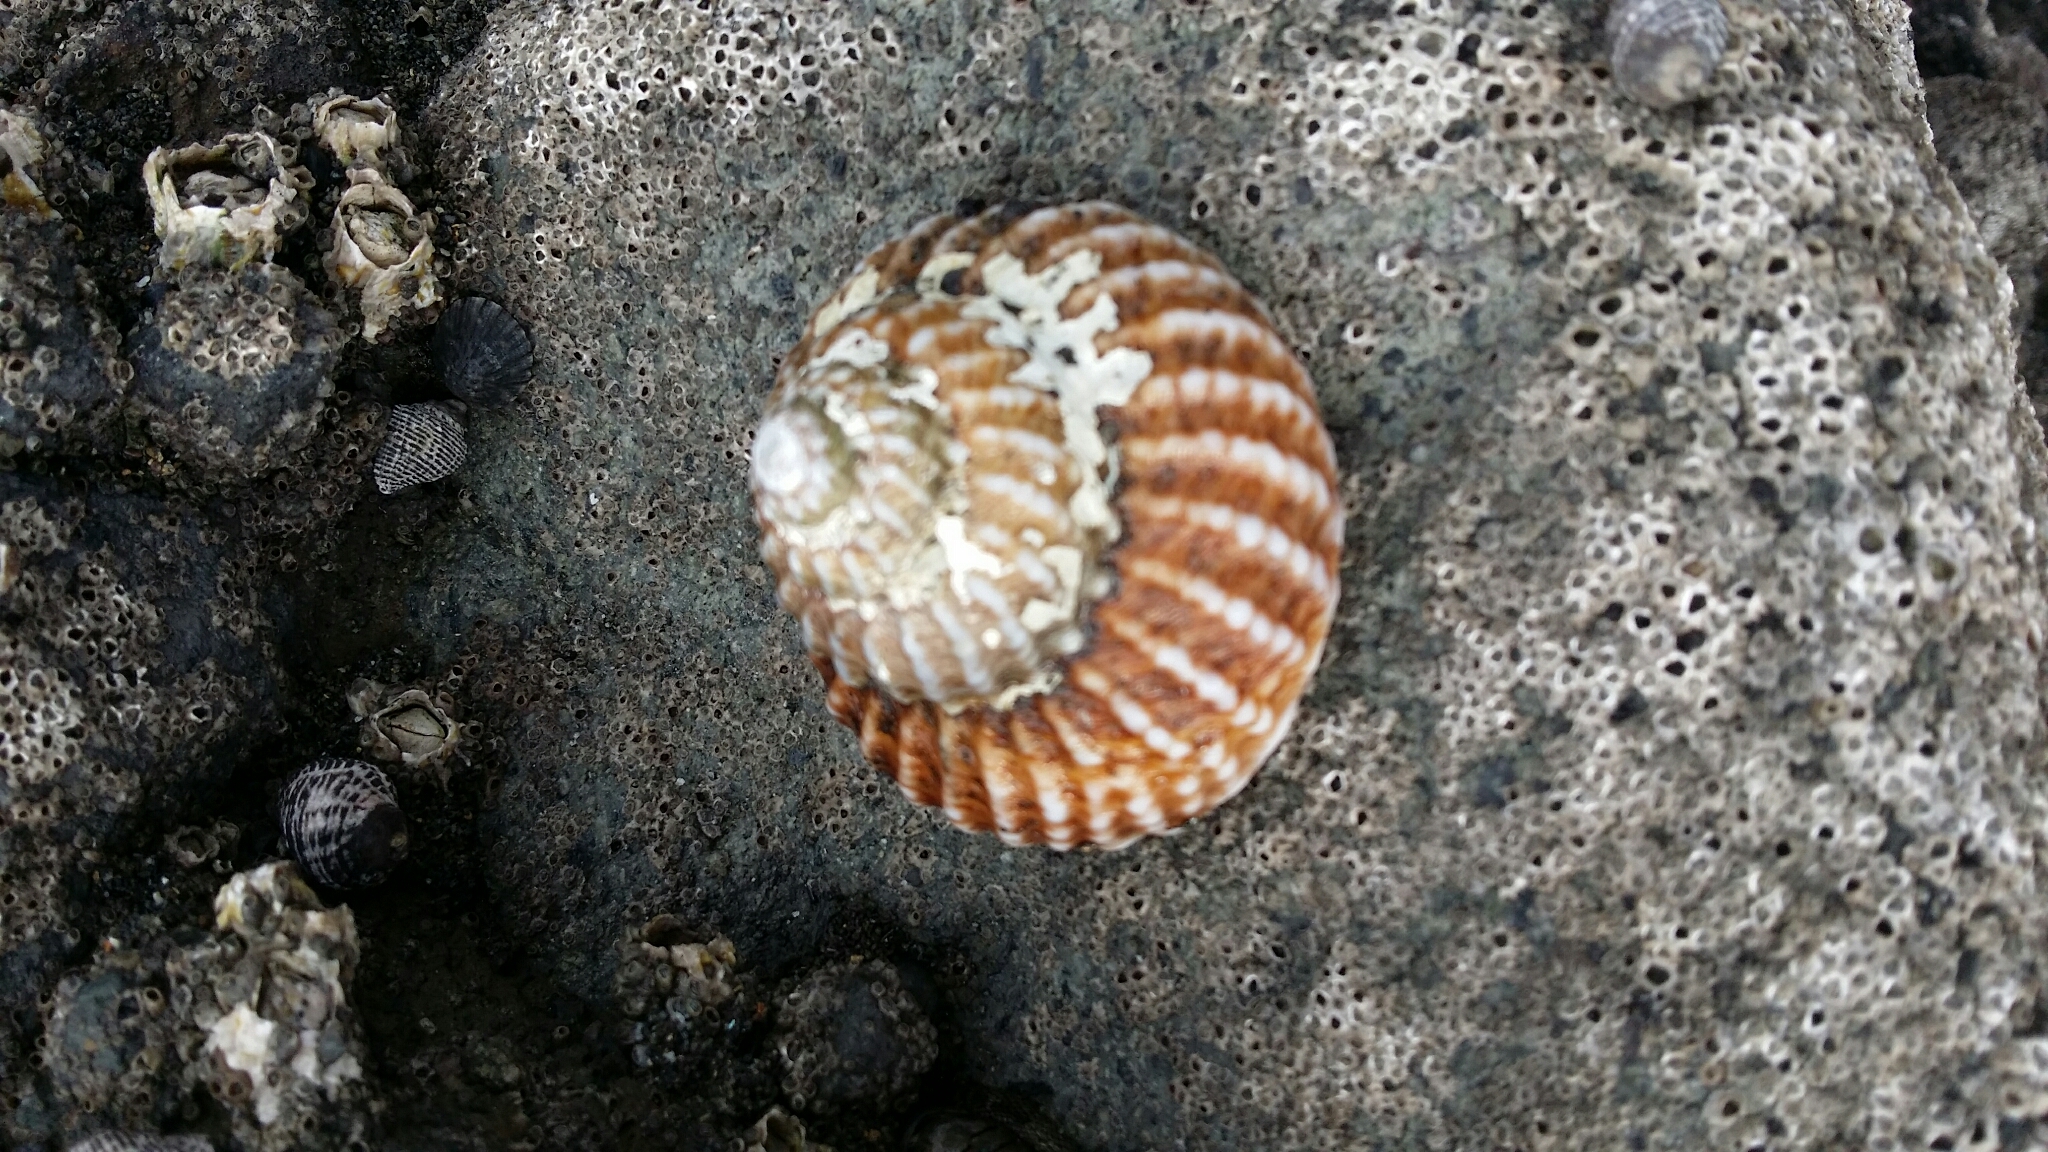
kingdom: Animalia
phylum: Mollusca
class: Gastropoda
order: Trochida
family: Turbinidae
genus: Cookia
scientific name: Cookia sulcata
